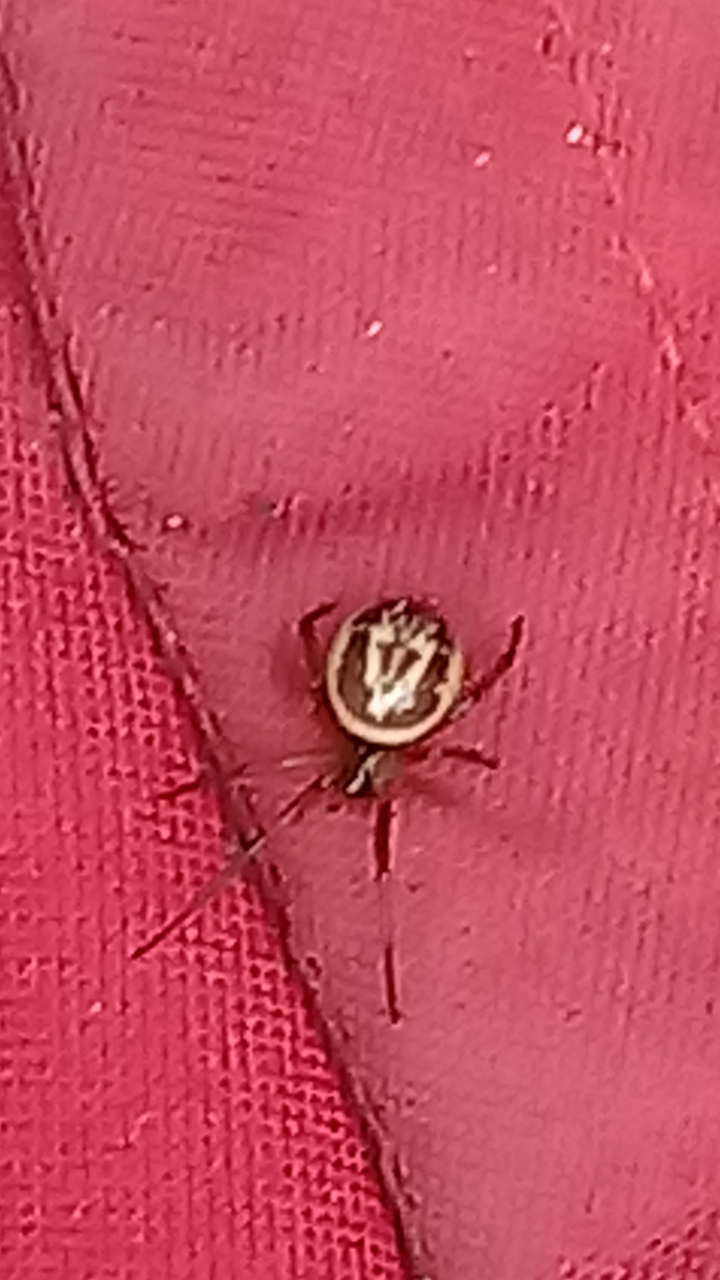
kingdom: Animalia
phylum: Arthropoda
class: Arachnida
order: Araneae
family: Theridiidae
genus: Steatoda
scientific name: Steatoda nobilis
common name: Cobweb weaver
